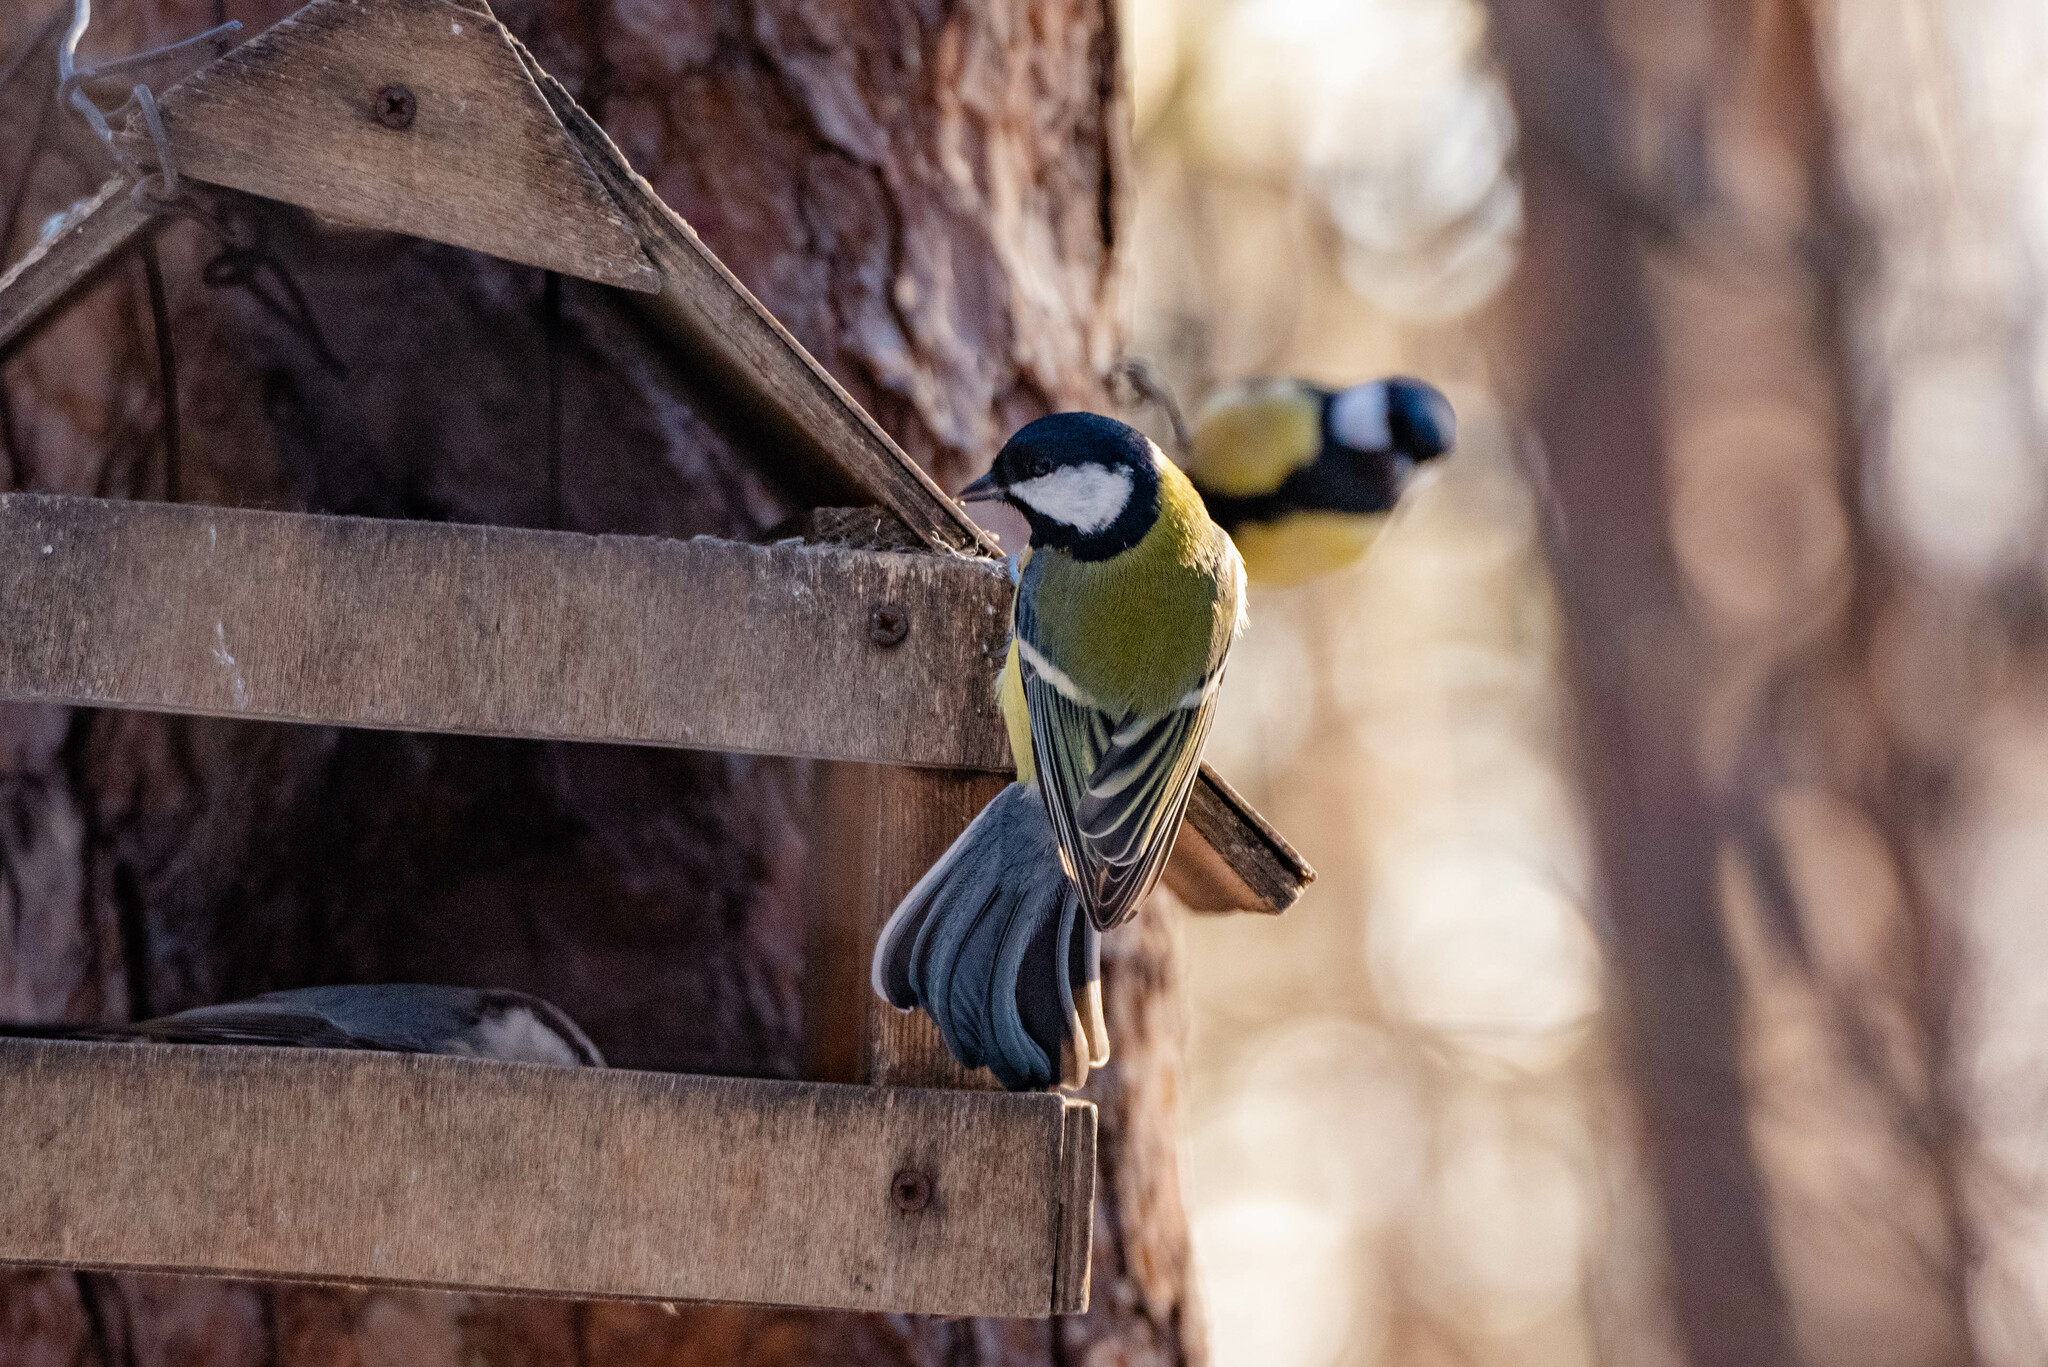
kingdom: Animalia
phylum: Chordata
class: Aves
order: Passeriformes
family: Paridae
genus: Parus
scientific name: Parus major
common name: Great tit
